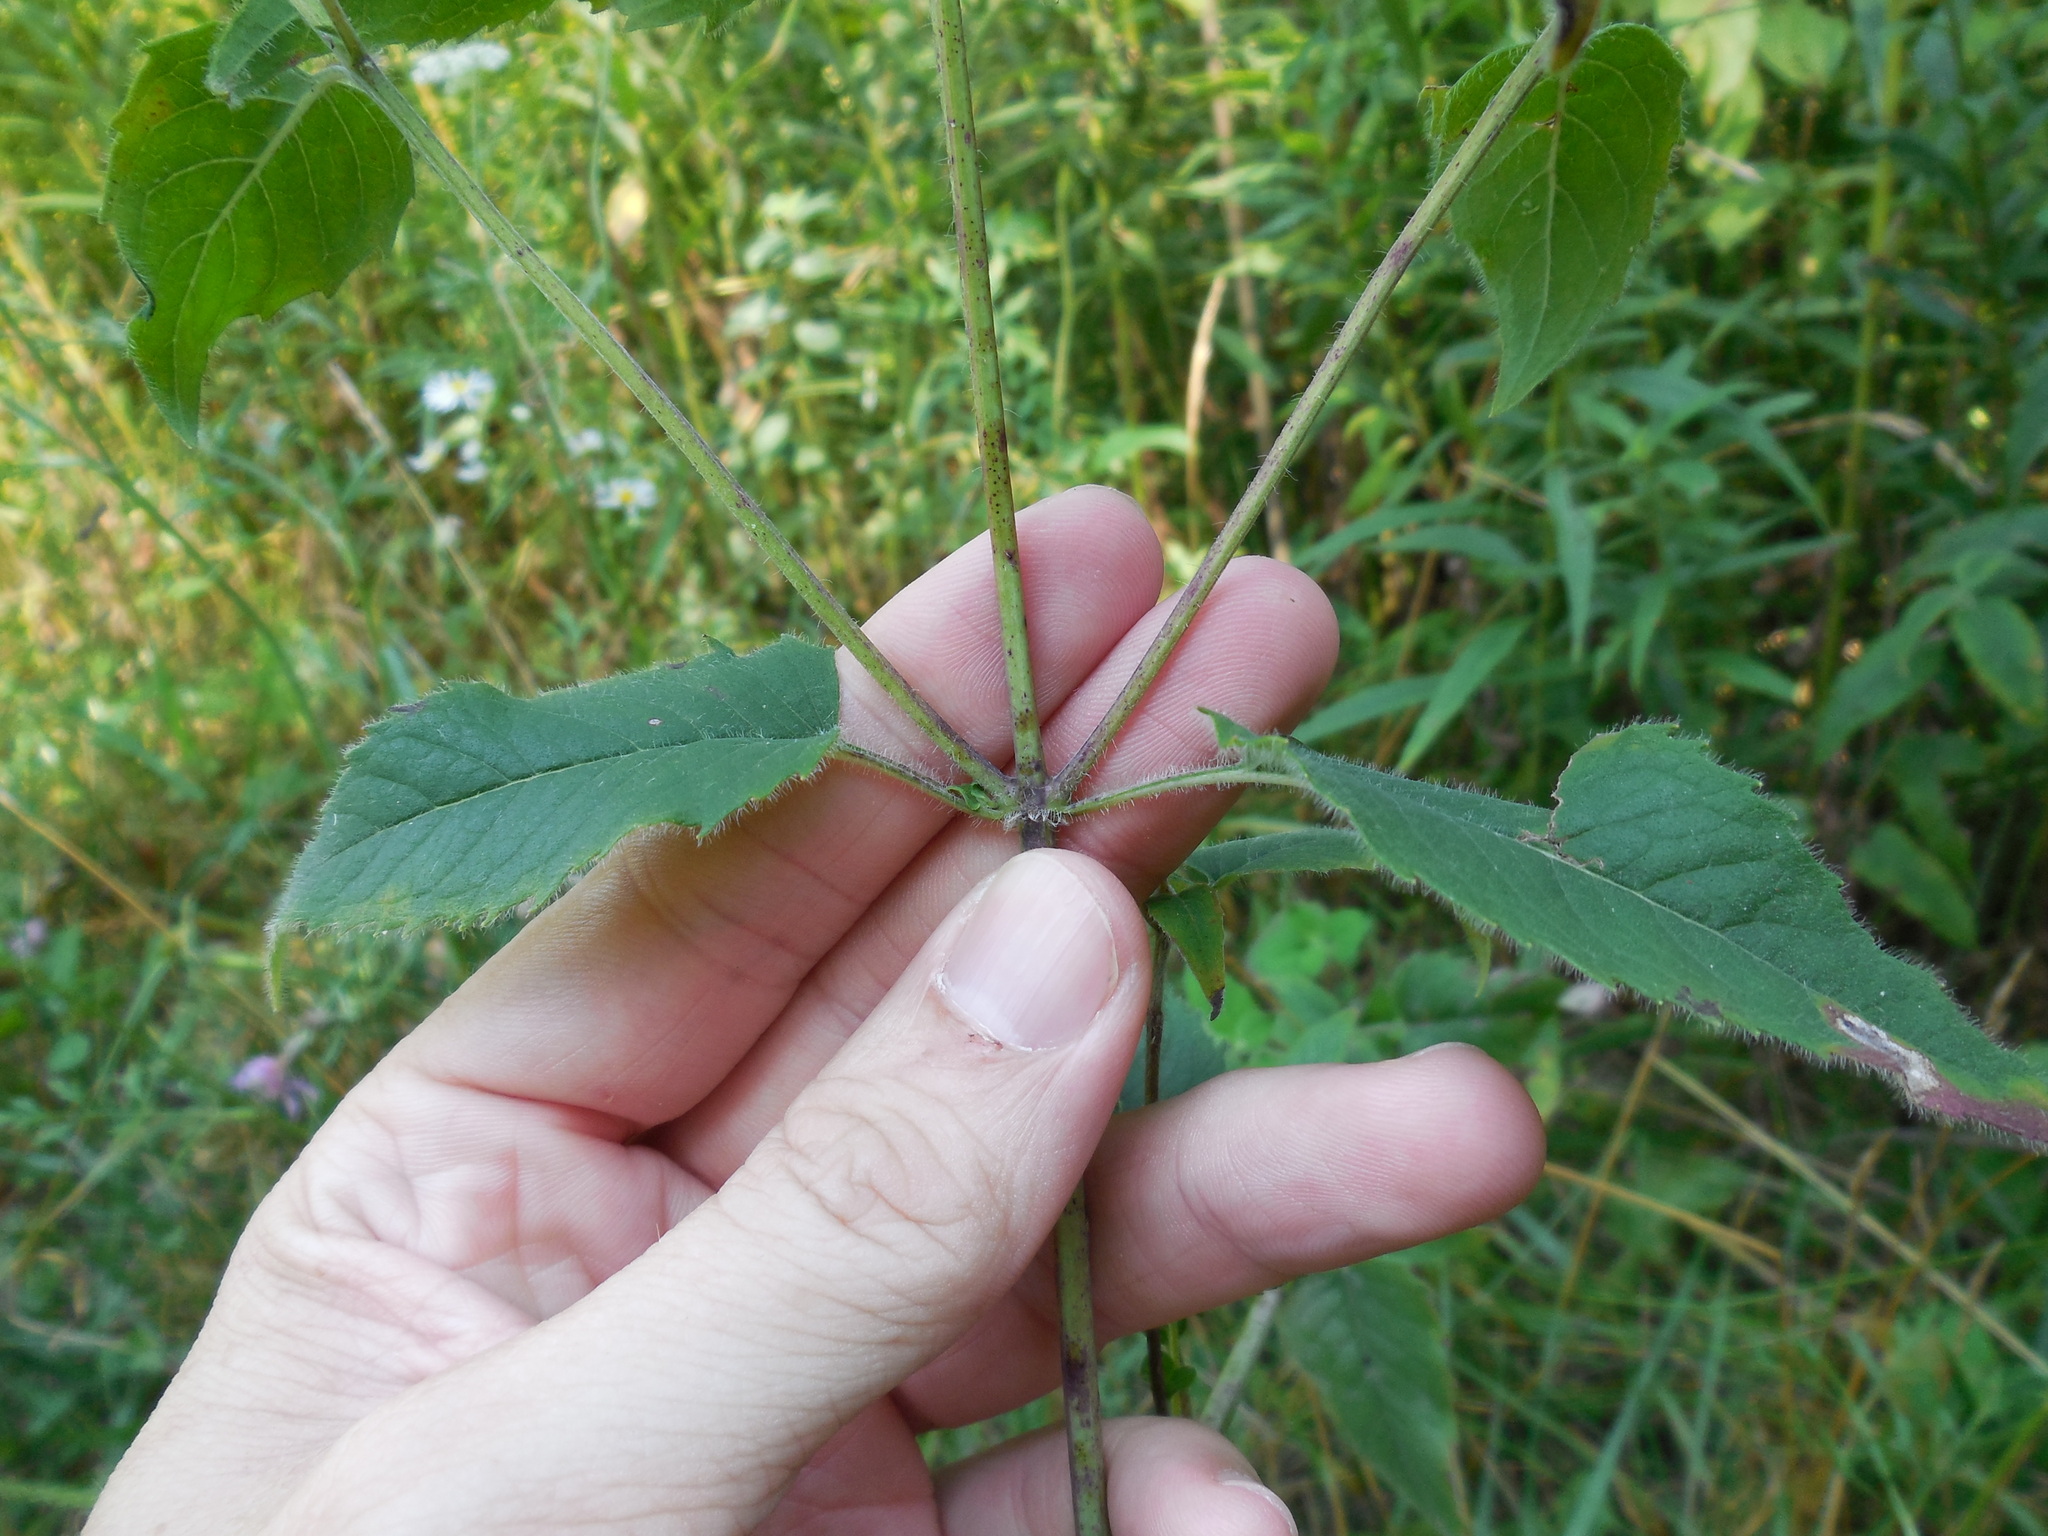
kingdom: Plantae
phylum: Tracheophyta
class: Magnoliopsida
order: Lamiales
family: Lamiaceae
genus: Monarda
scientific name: Monarda fistulosa
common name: Purple beebalm
